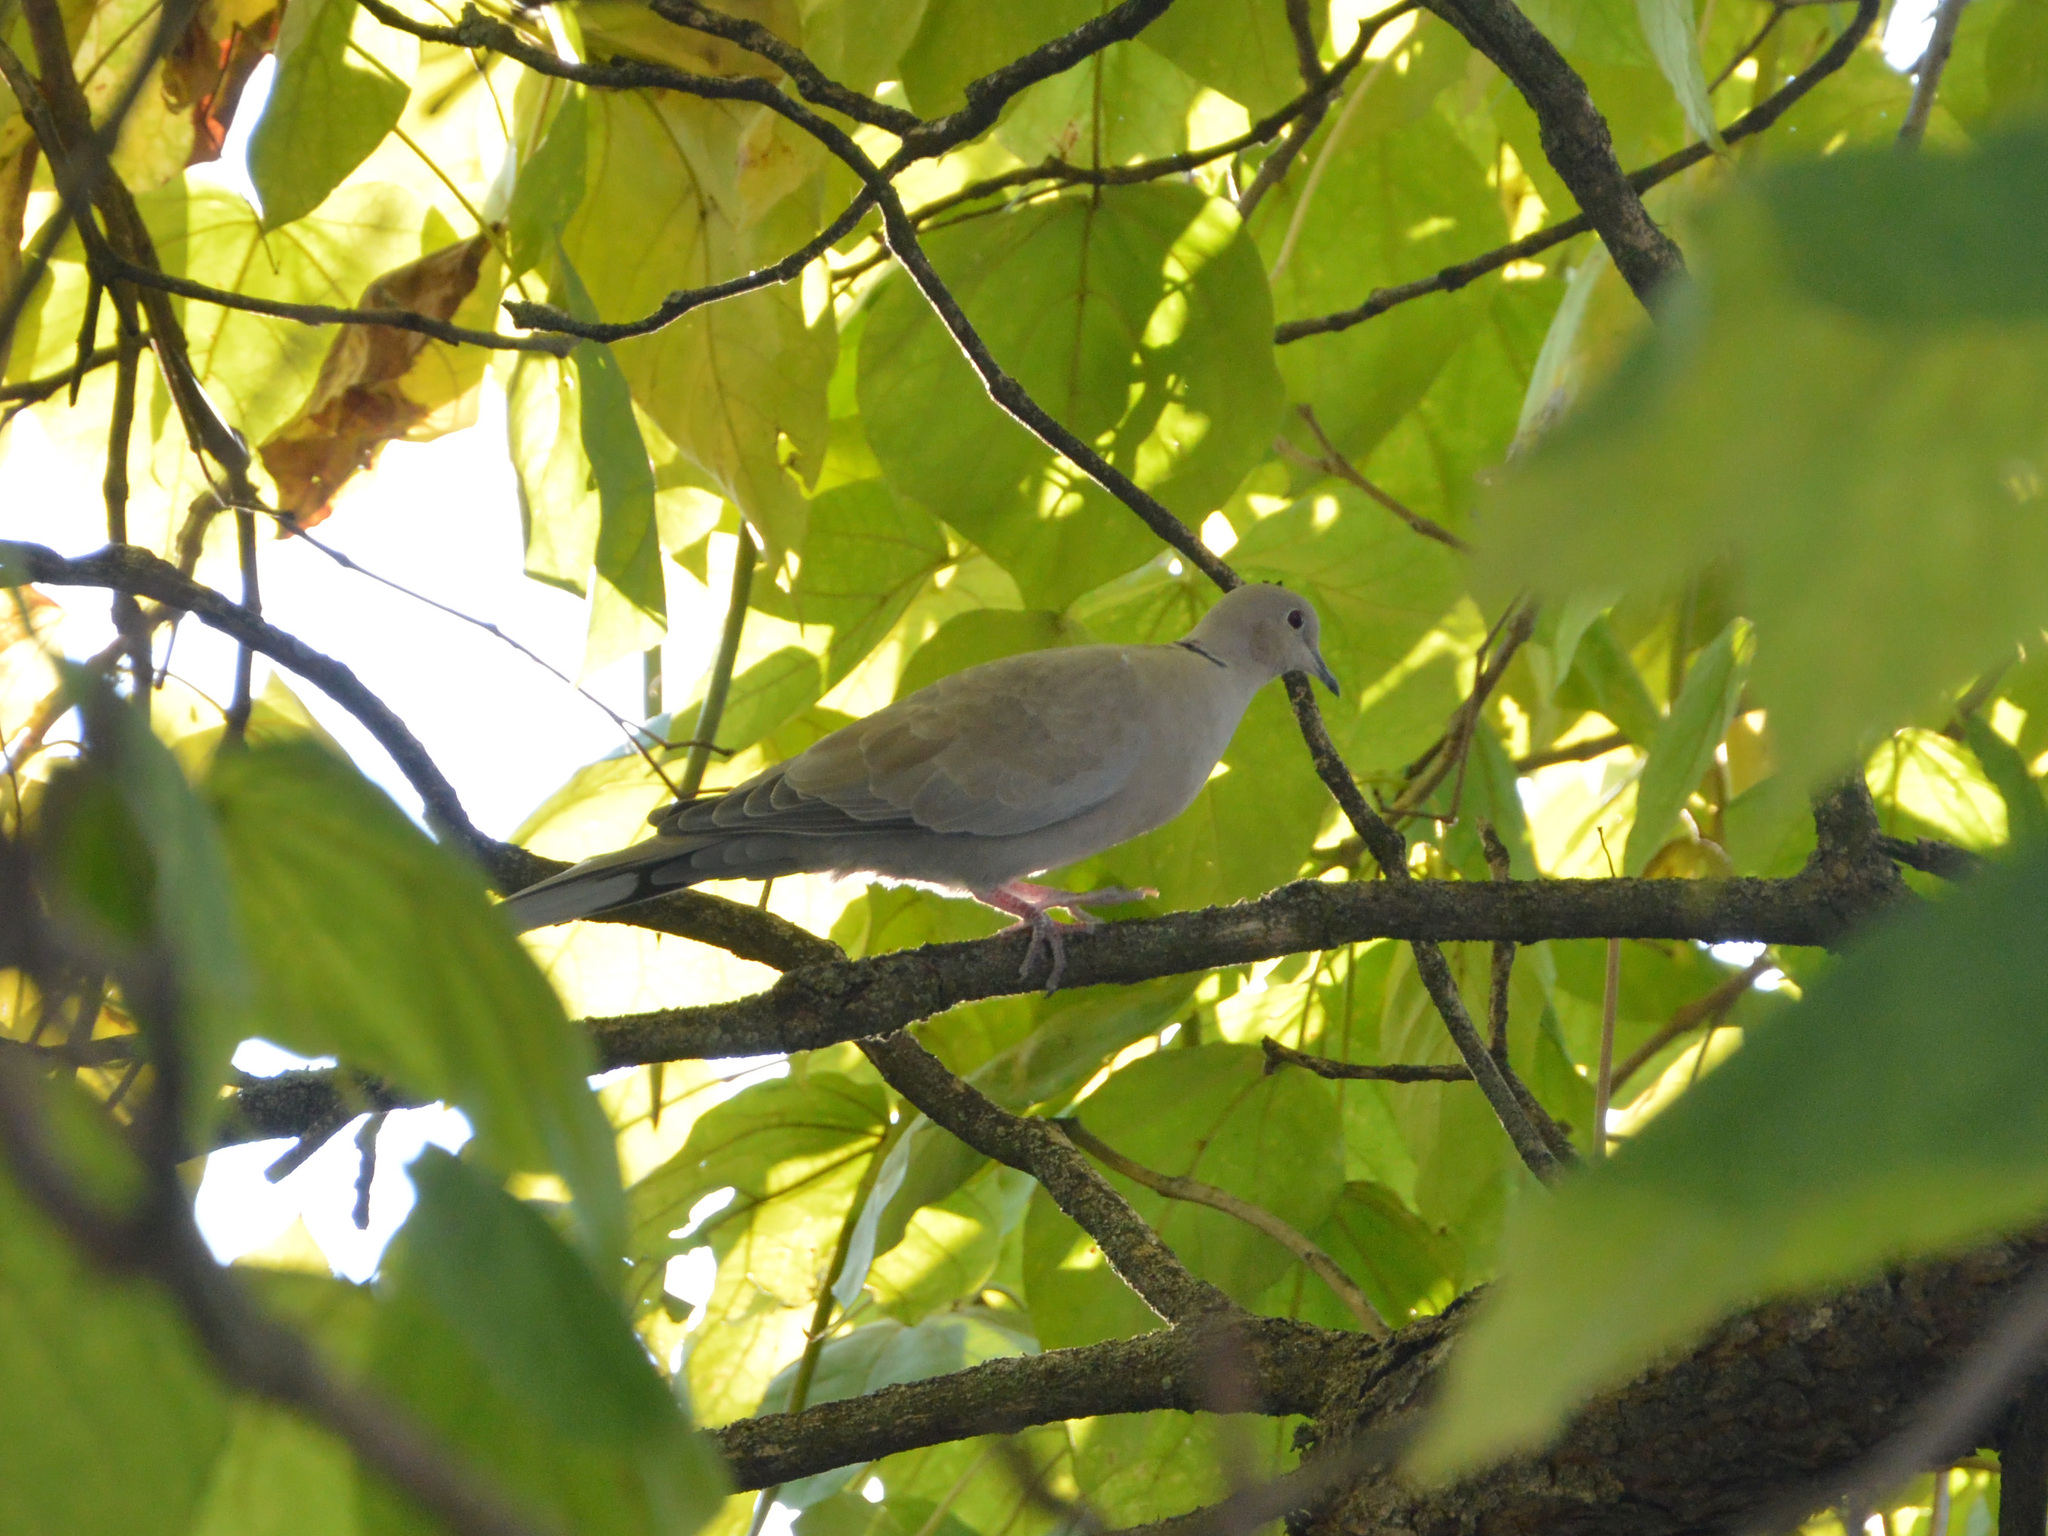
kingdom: Animalia
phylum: Chordata
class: Aves
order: Columbiformes
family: Columbidae
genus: Streptopelia
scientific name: Streptopelia decaocto
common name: Eurasian collared dove
